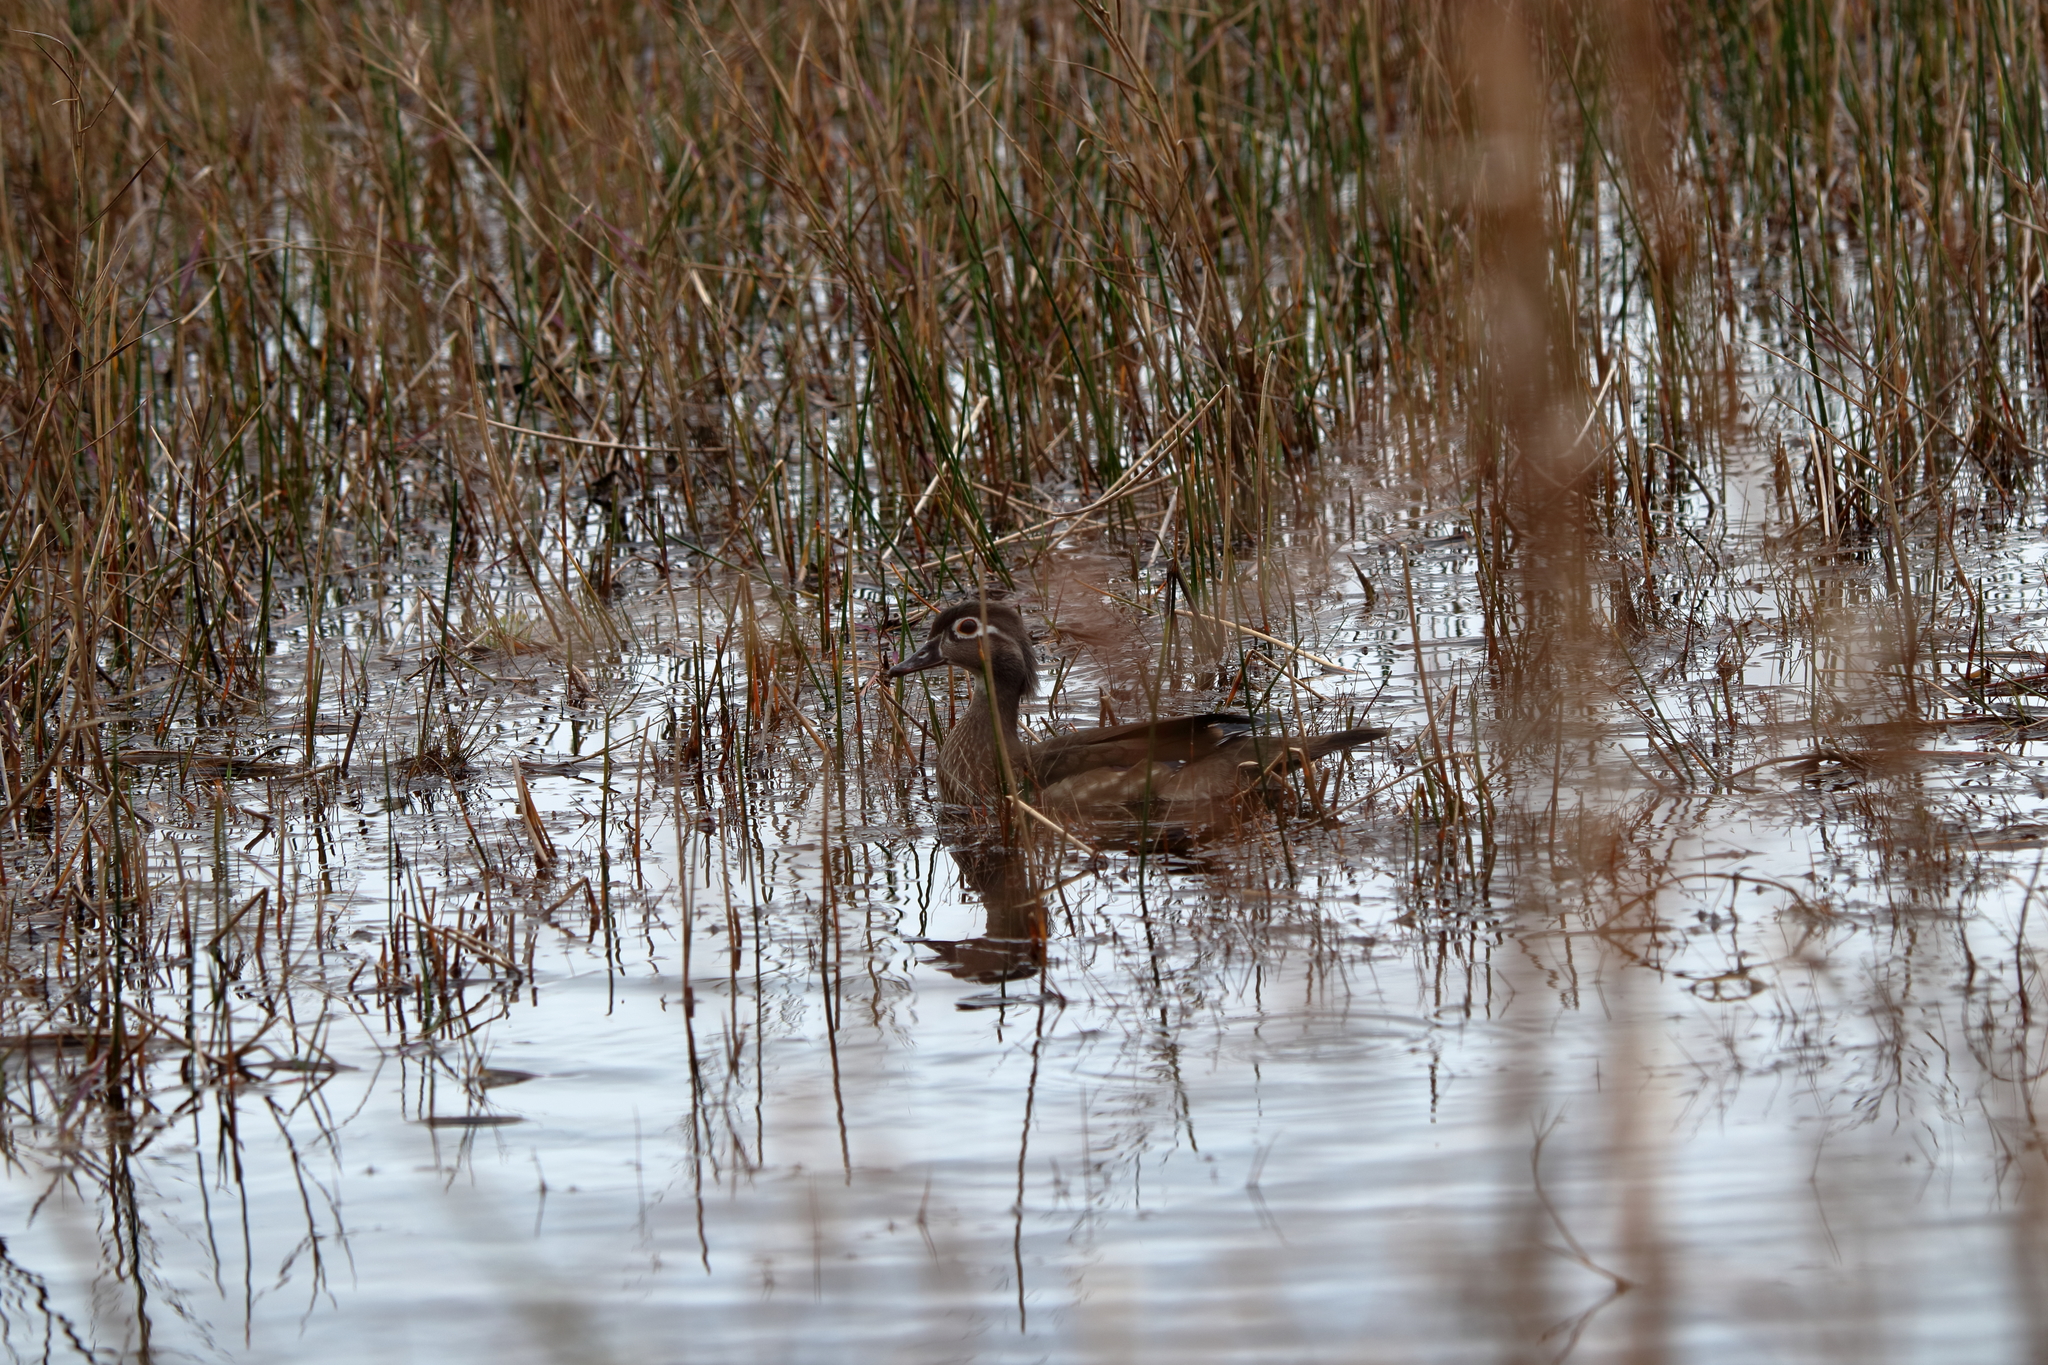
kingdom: Animalia
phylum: Chordata
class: Aves
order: Anseriformes
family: Anatidae
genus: Aix
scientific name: Aix sponsa
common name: Wood duck
